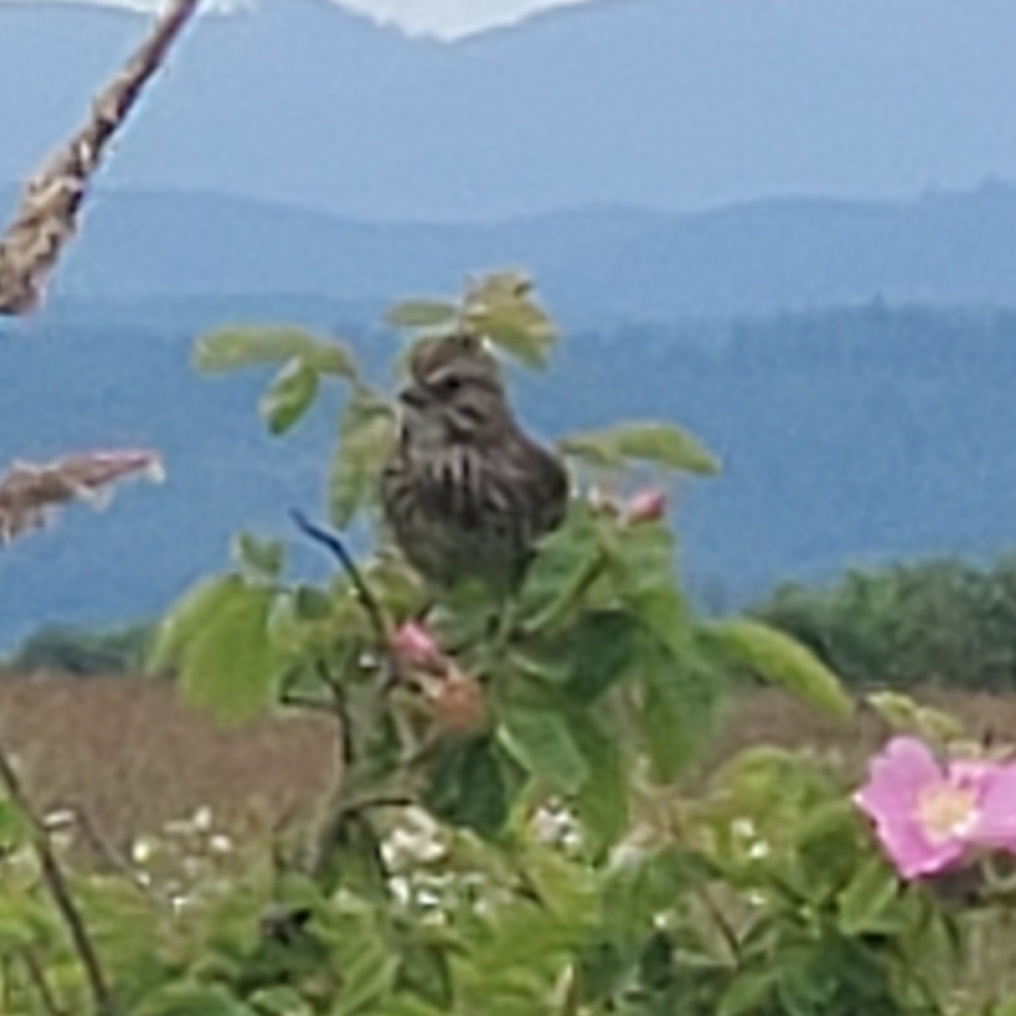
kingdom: Animalia
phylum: Chordata
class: Aves
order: Passeriformes
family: Passerellidae
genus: Melospiza
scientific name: Melospiza melodia
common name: Song sparrow
